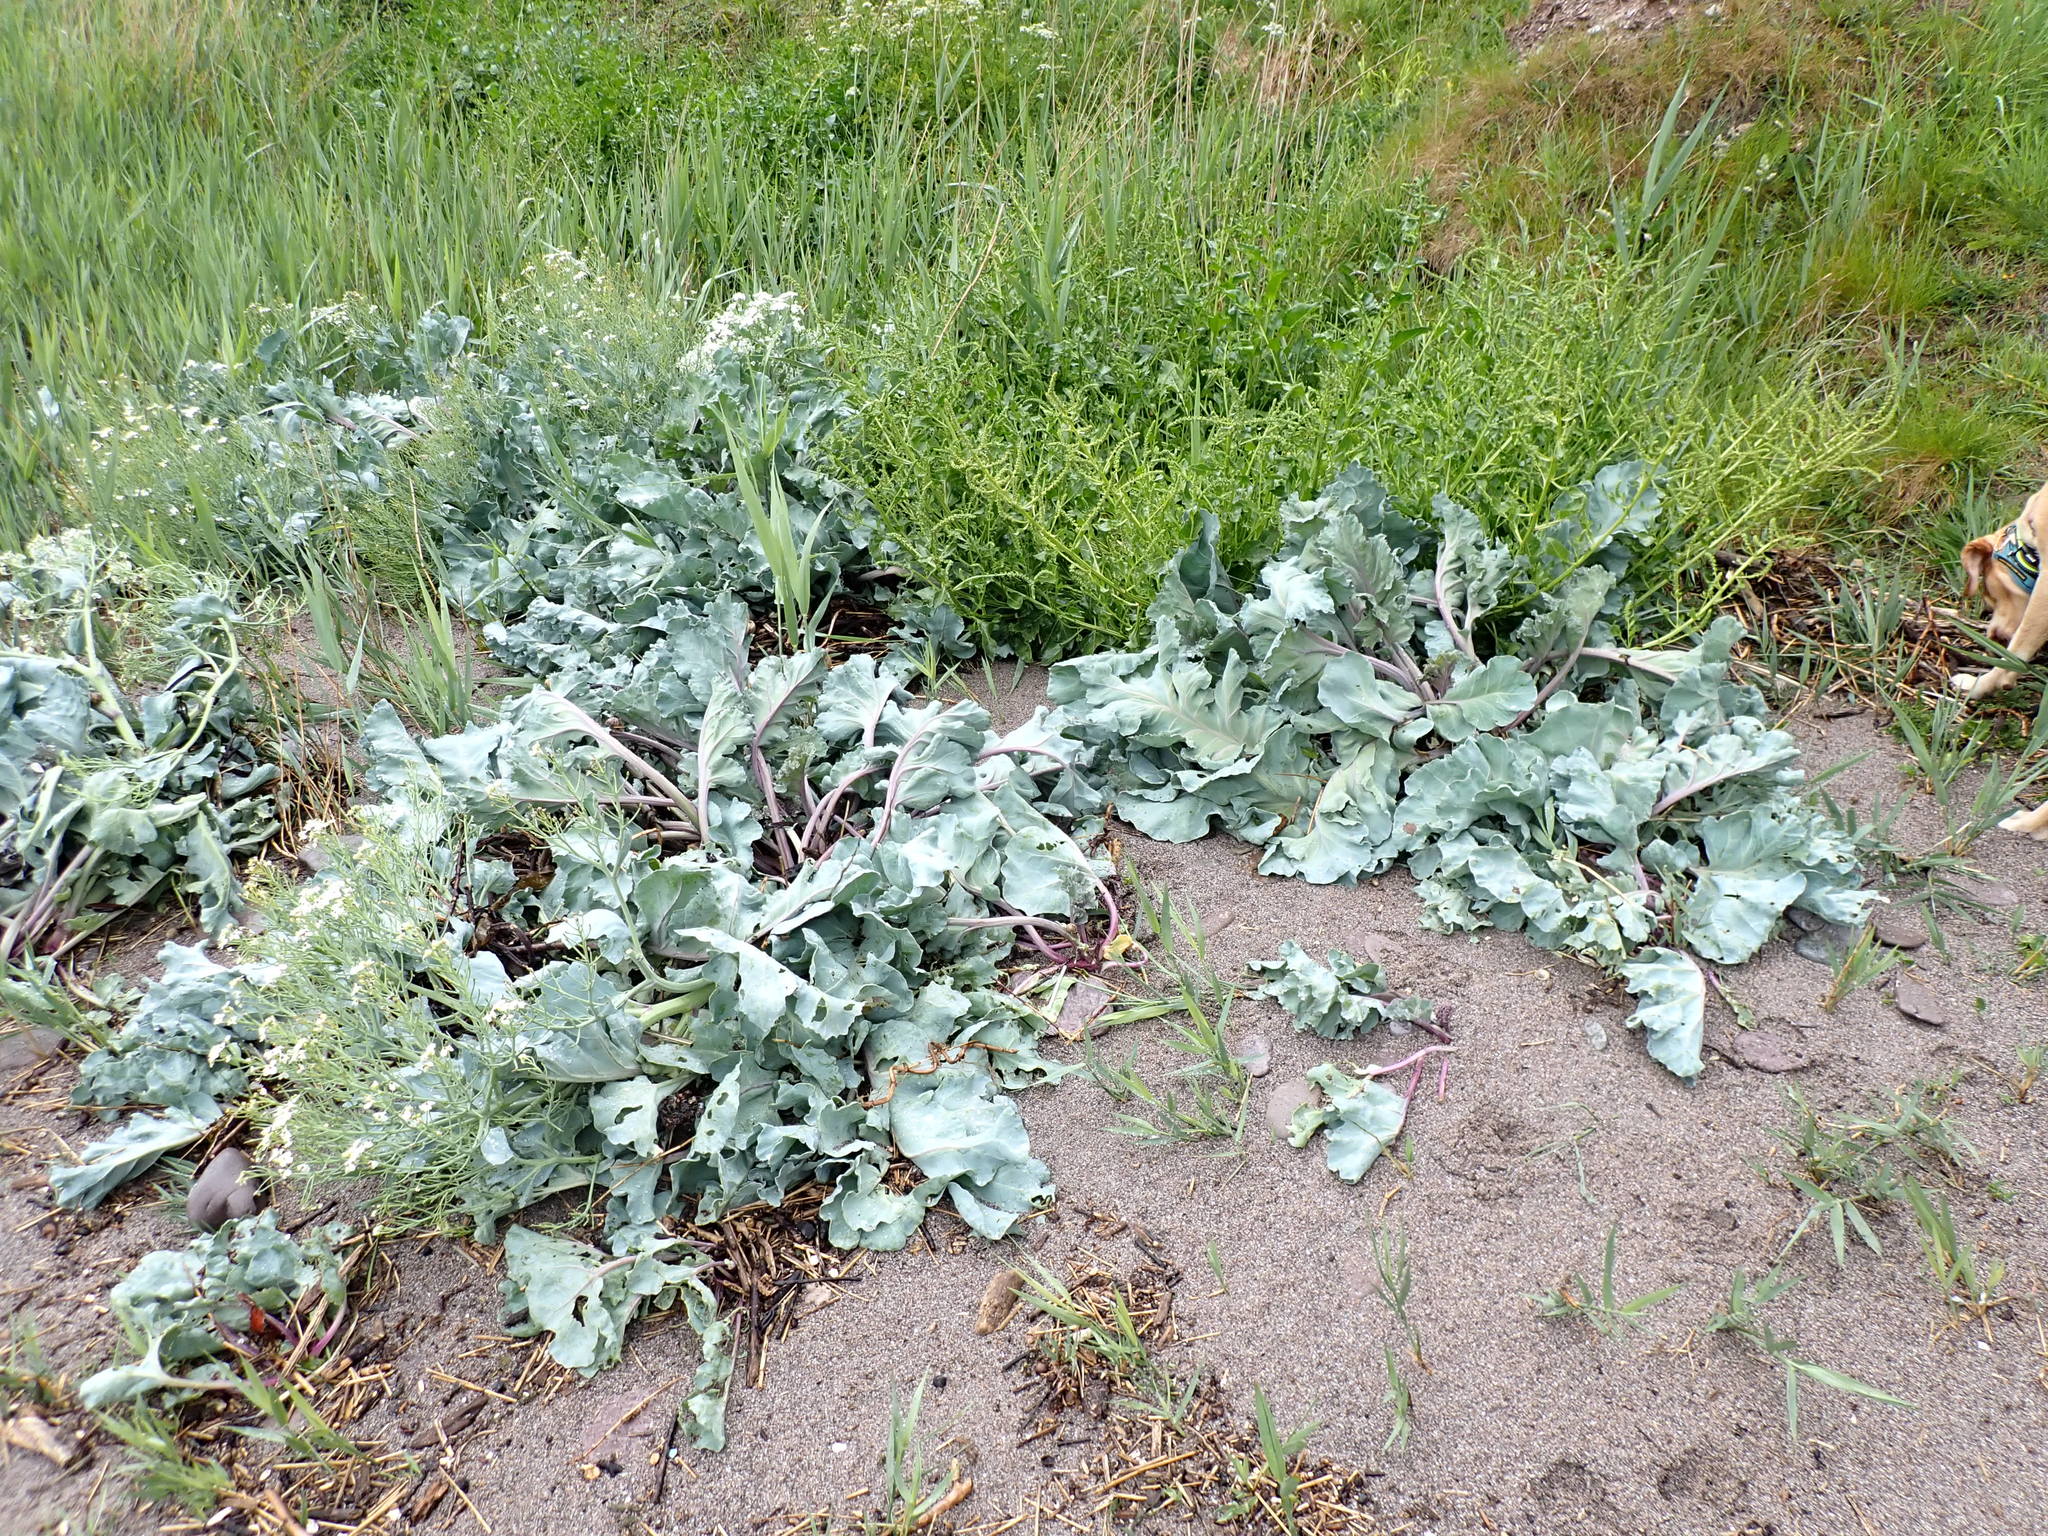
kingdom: Plantae
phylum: Tracheophyta
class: Magnoliopsida
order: Brassicales
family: Brassicaceae
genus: Crambe
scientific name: Crambe maritima
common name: Sea-kale
